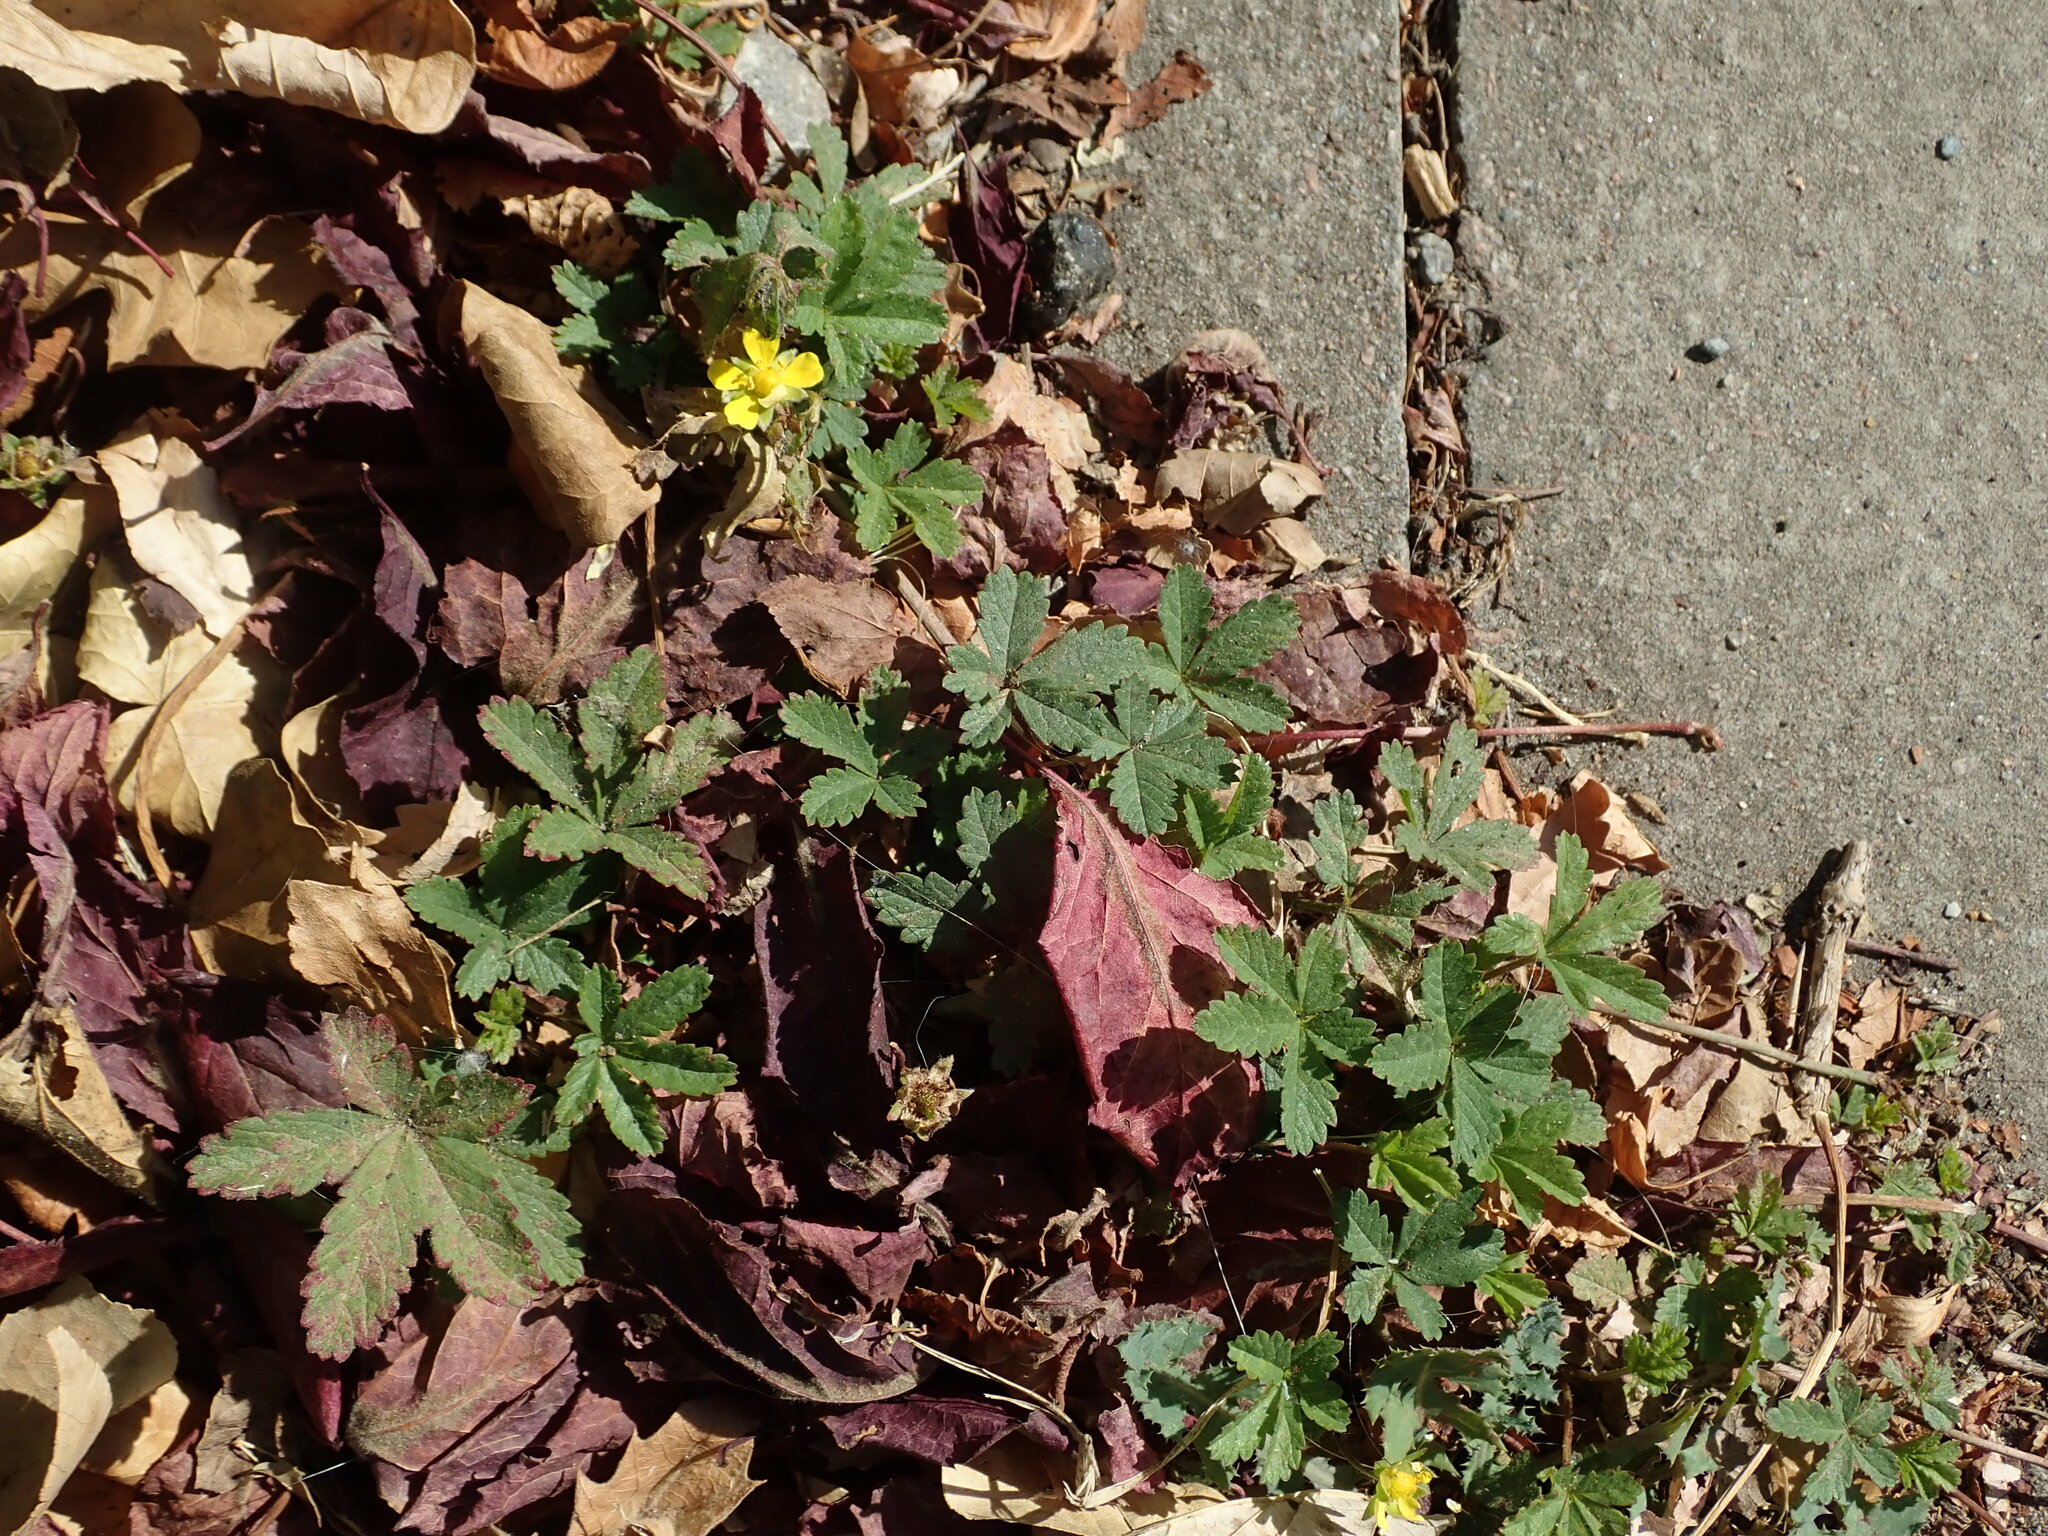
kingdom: Plantae
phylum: Tracheophyta
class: Magnoliopsida
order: Rosales
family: Rosaceae
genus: Potentilla
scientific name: Potentilla reptans
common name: Creeping cinquefoil
